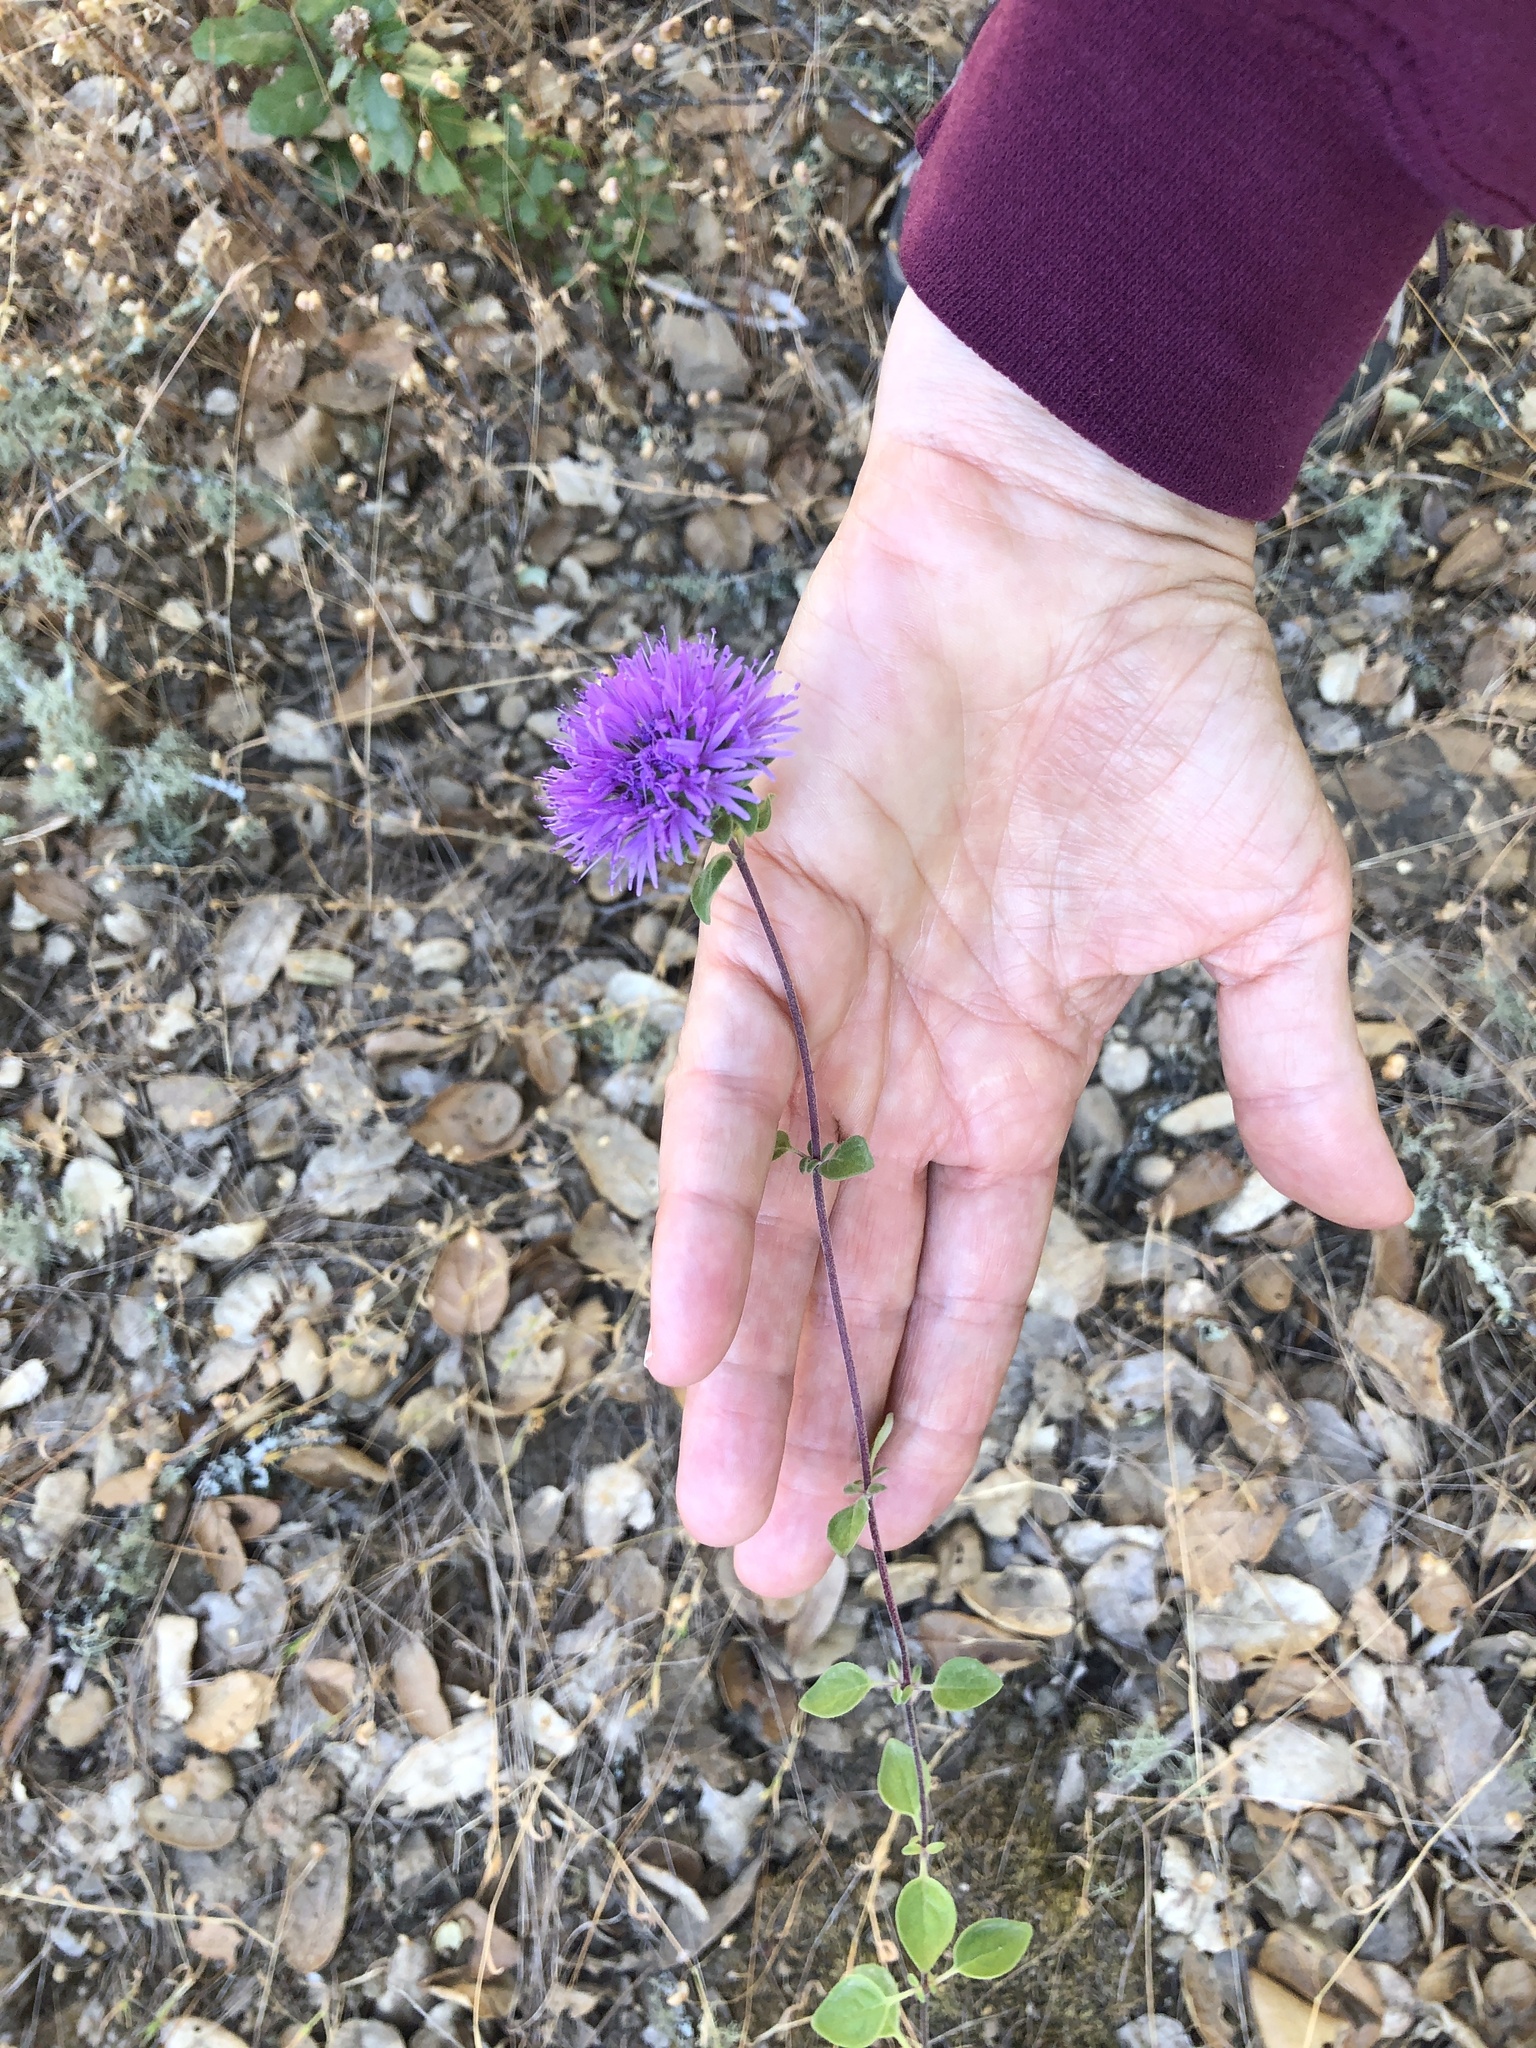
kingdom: Plantae
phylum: Tracheophyta
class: Magnoliopsida
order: Lamiales
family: Lamiaceae
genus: Monardella
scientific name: Monardella odoratissima
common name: Pacific monardella
